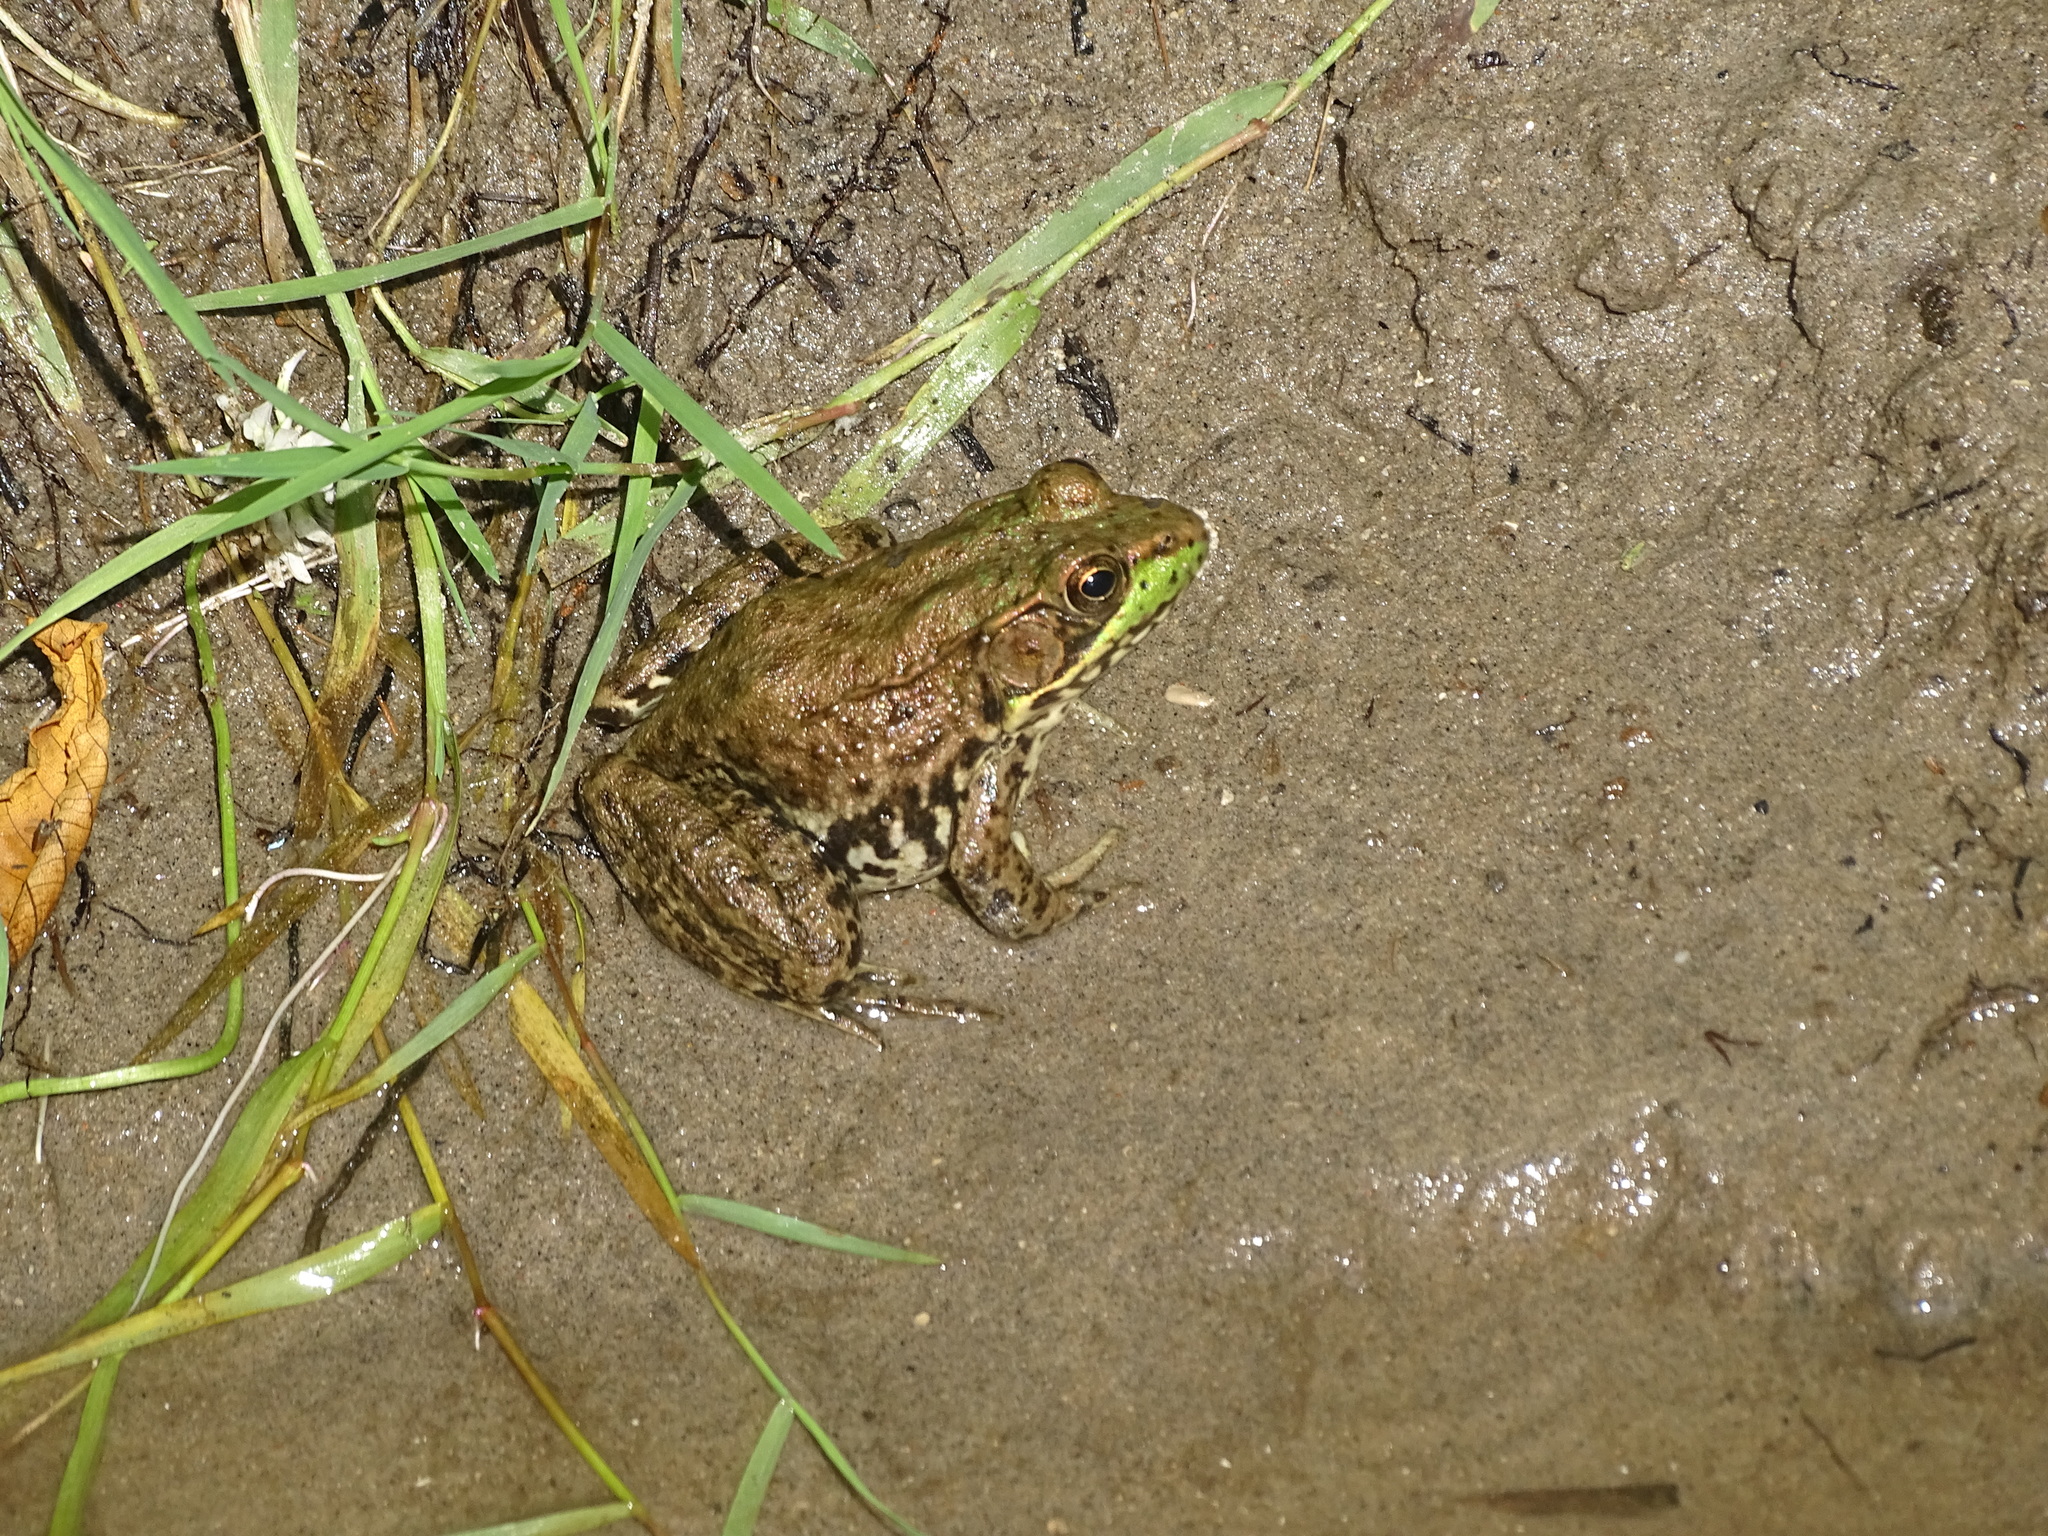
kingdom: Animalia
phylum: Chordata
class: Amphibia
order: Anura
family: Ranidae
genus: Lithobates
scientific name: Lithobates clamitans
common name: Green frog
